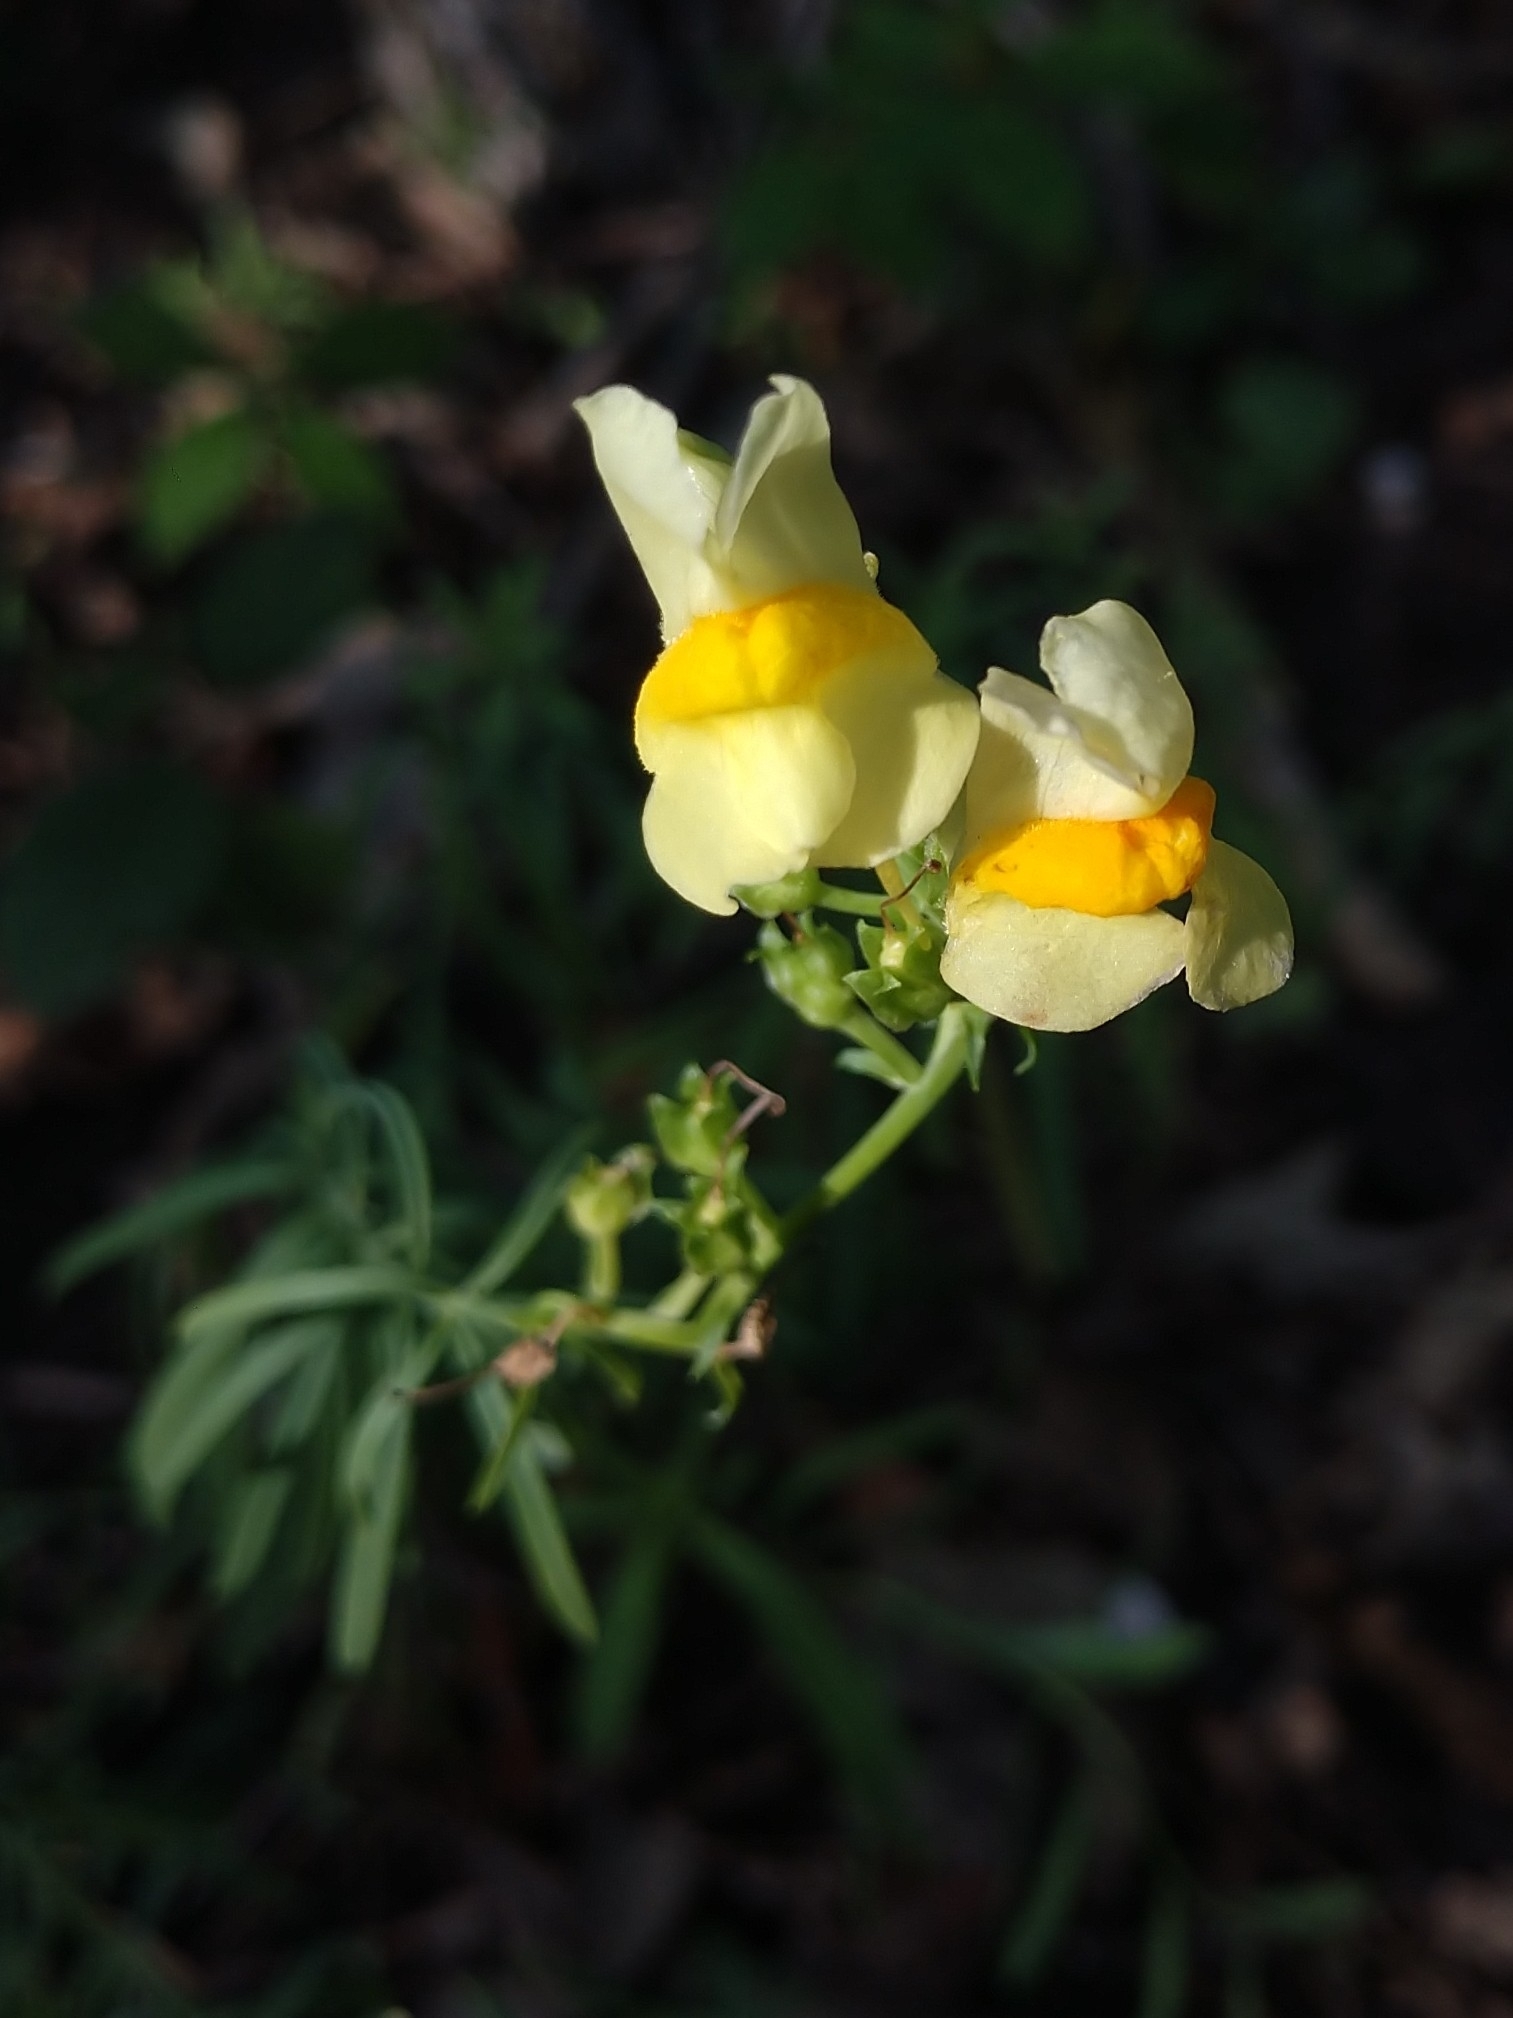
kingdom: Plantae
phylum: Tracheophyta
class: Magnoliopsida
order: Lamiales
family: Plantaginaceae
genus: Linaria
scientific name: Linaria vulgaris
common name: Butter and eggs
